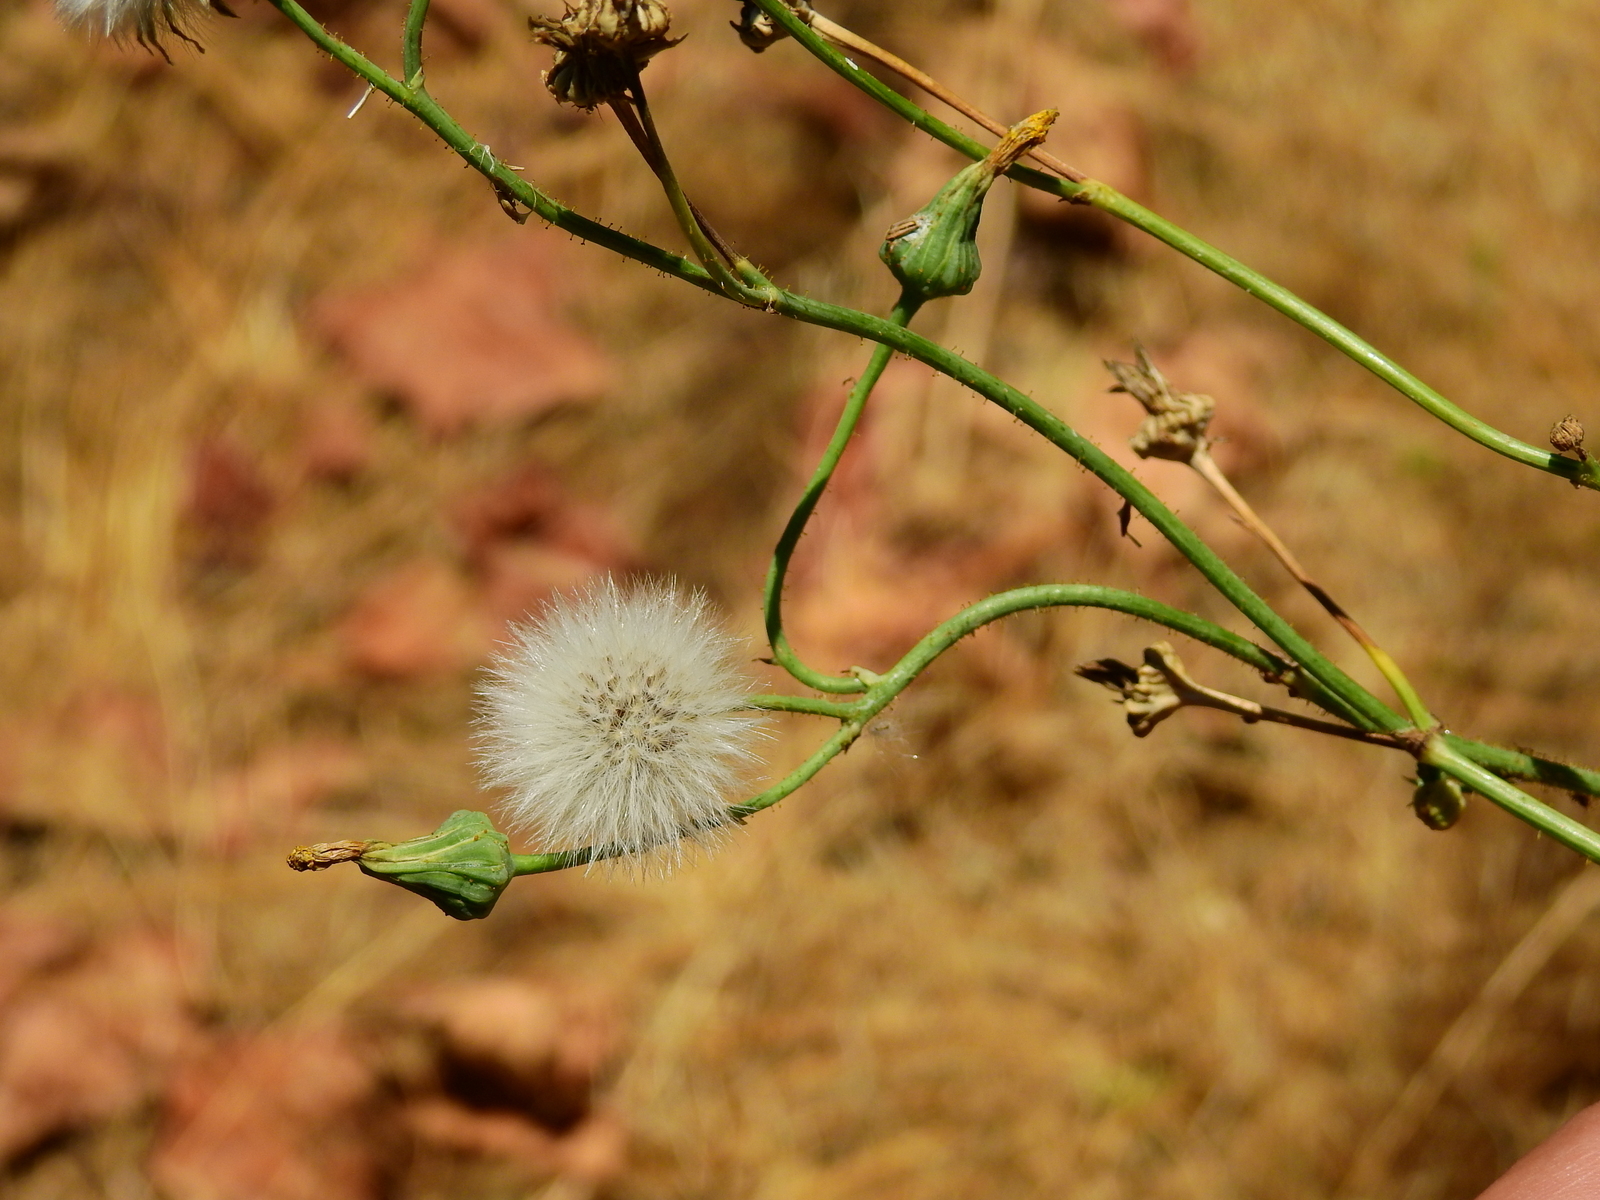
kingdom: Plantae
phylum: Tracheophyta
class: Magnoliopsida
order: Asterales
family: Asteraceae
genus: Sonchus
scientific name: Sonchus oleraceus
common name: Common sowthistle
